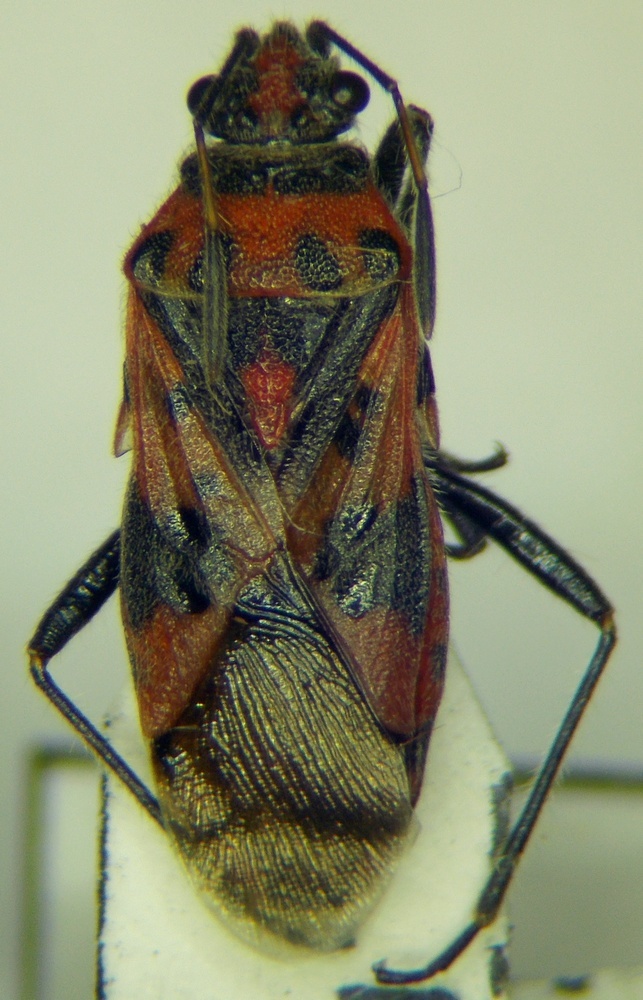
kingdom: Animalia
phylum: Arthropoda
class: Insecta
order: Hemiptera
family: Rhopalidae
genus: Corizus
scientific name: Corizus hyoscyami
